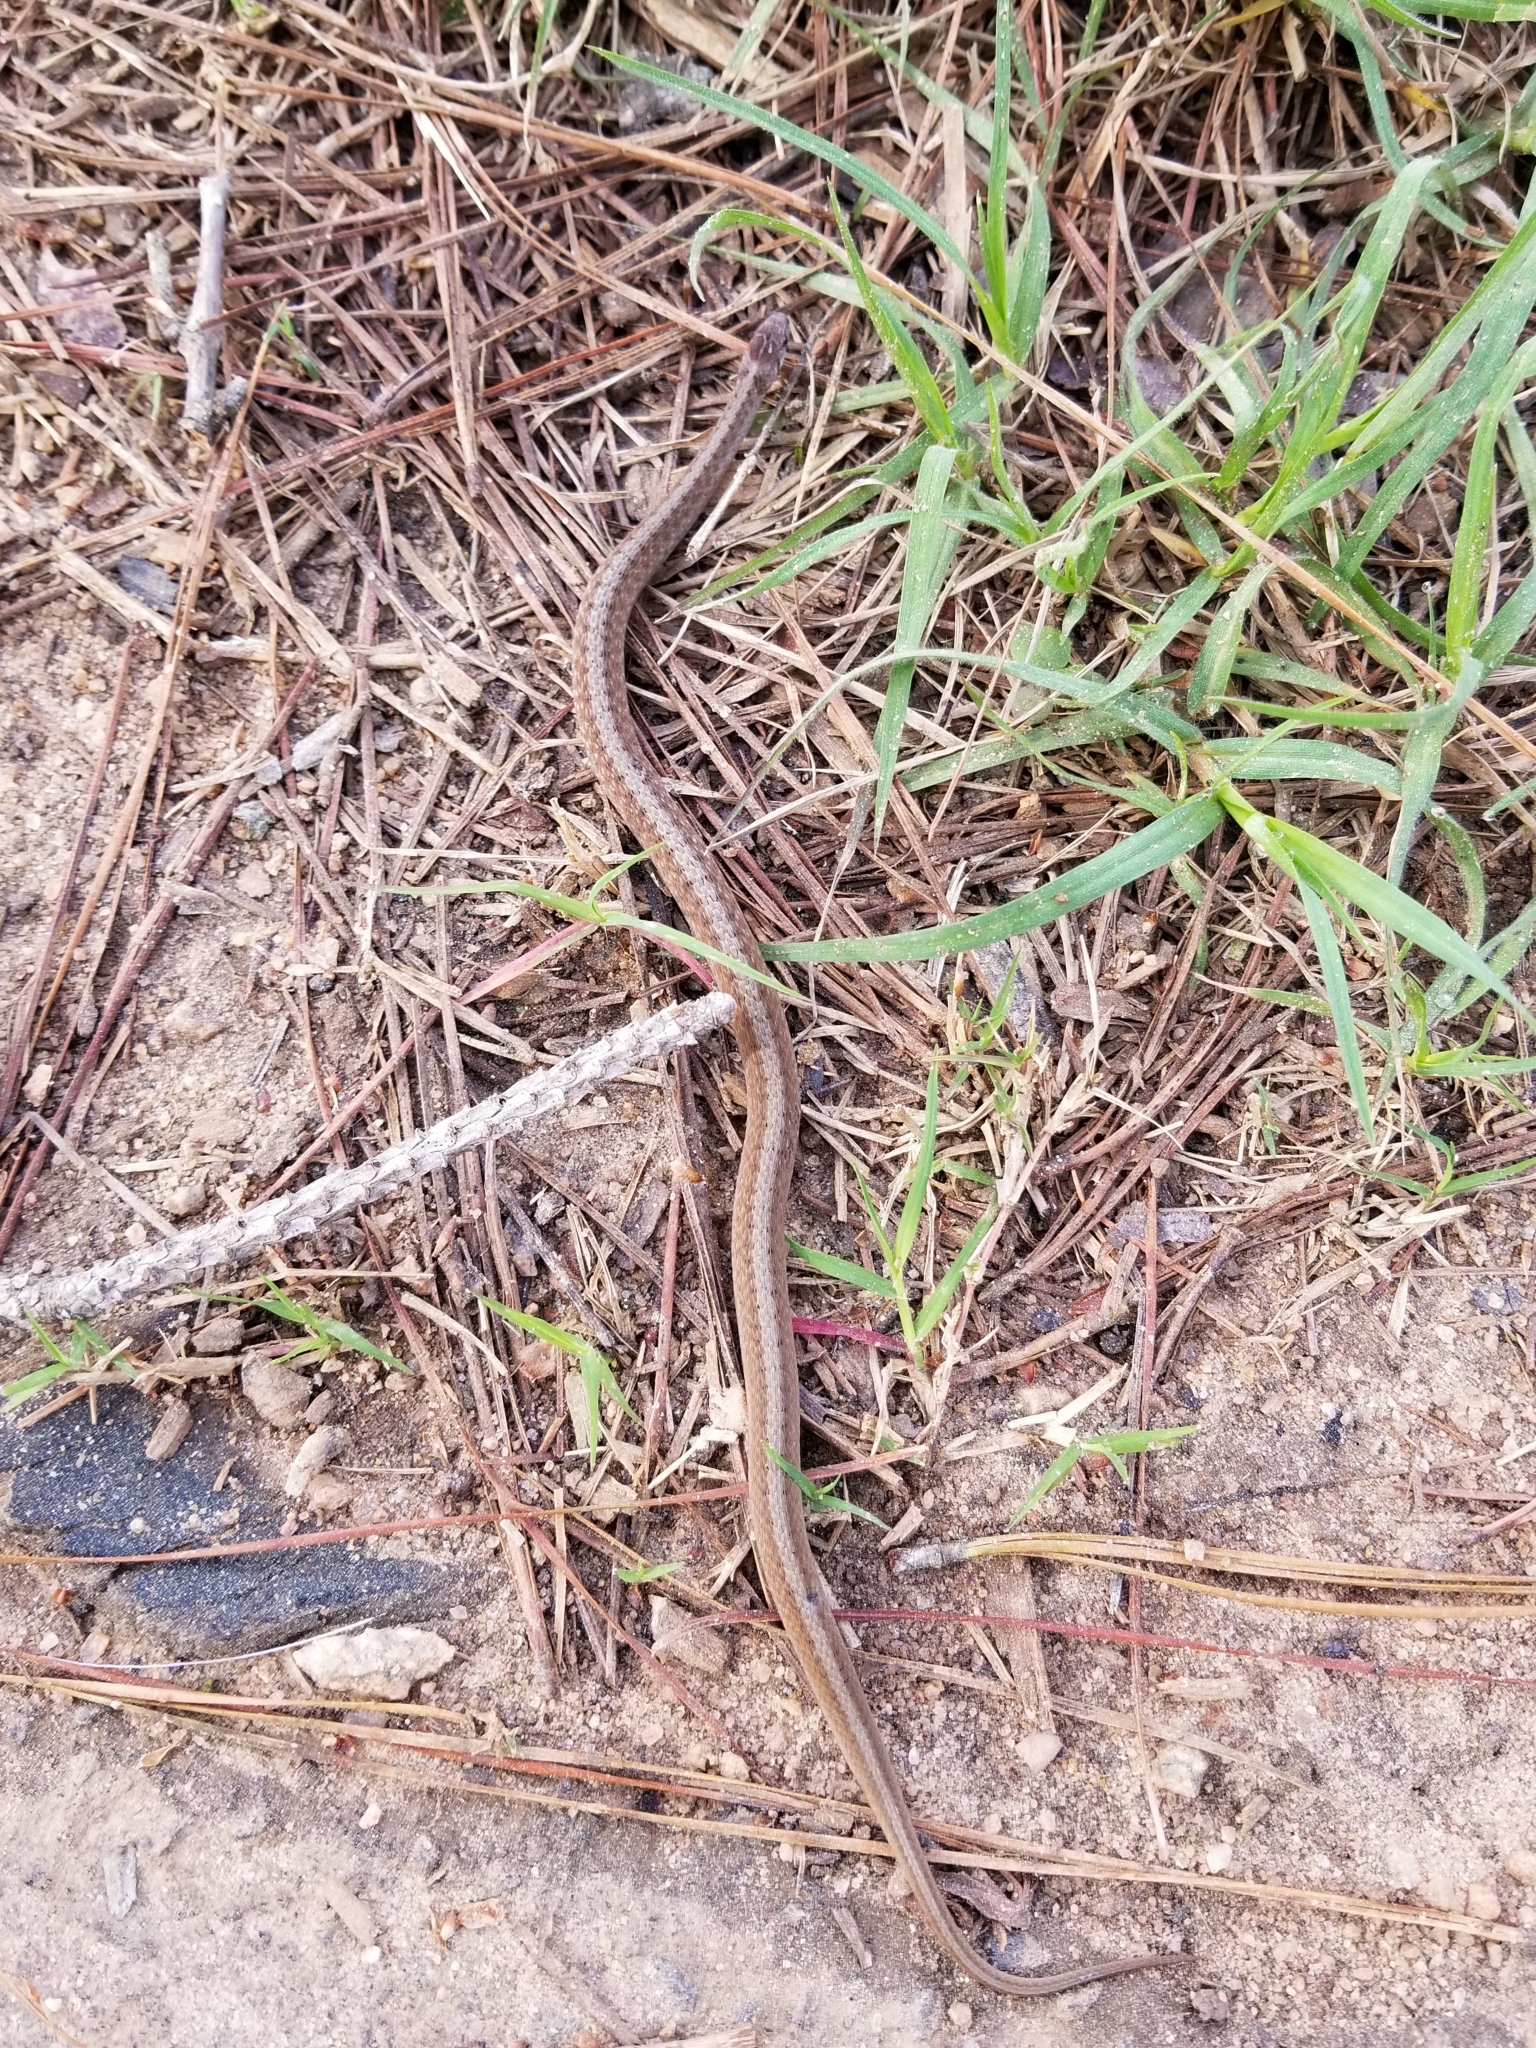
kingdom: Animalia
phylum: Chordata
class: Squamata
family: Colubridae
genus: Storeria
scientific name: Storeria dekayi
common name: (dekay’s) brown snake
